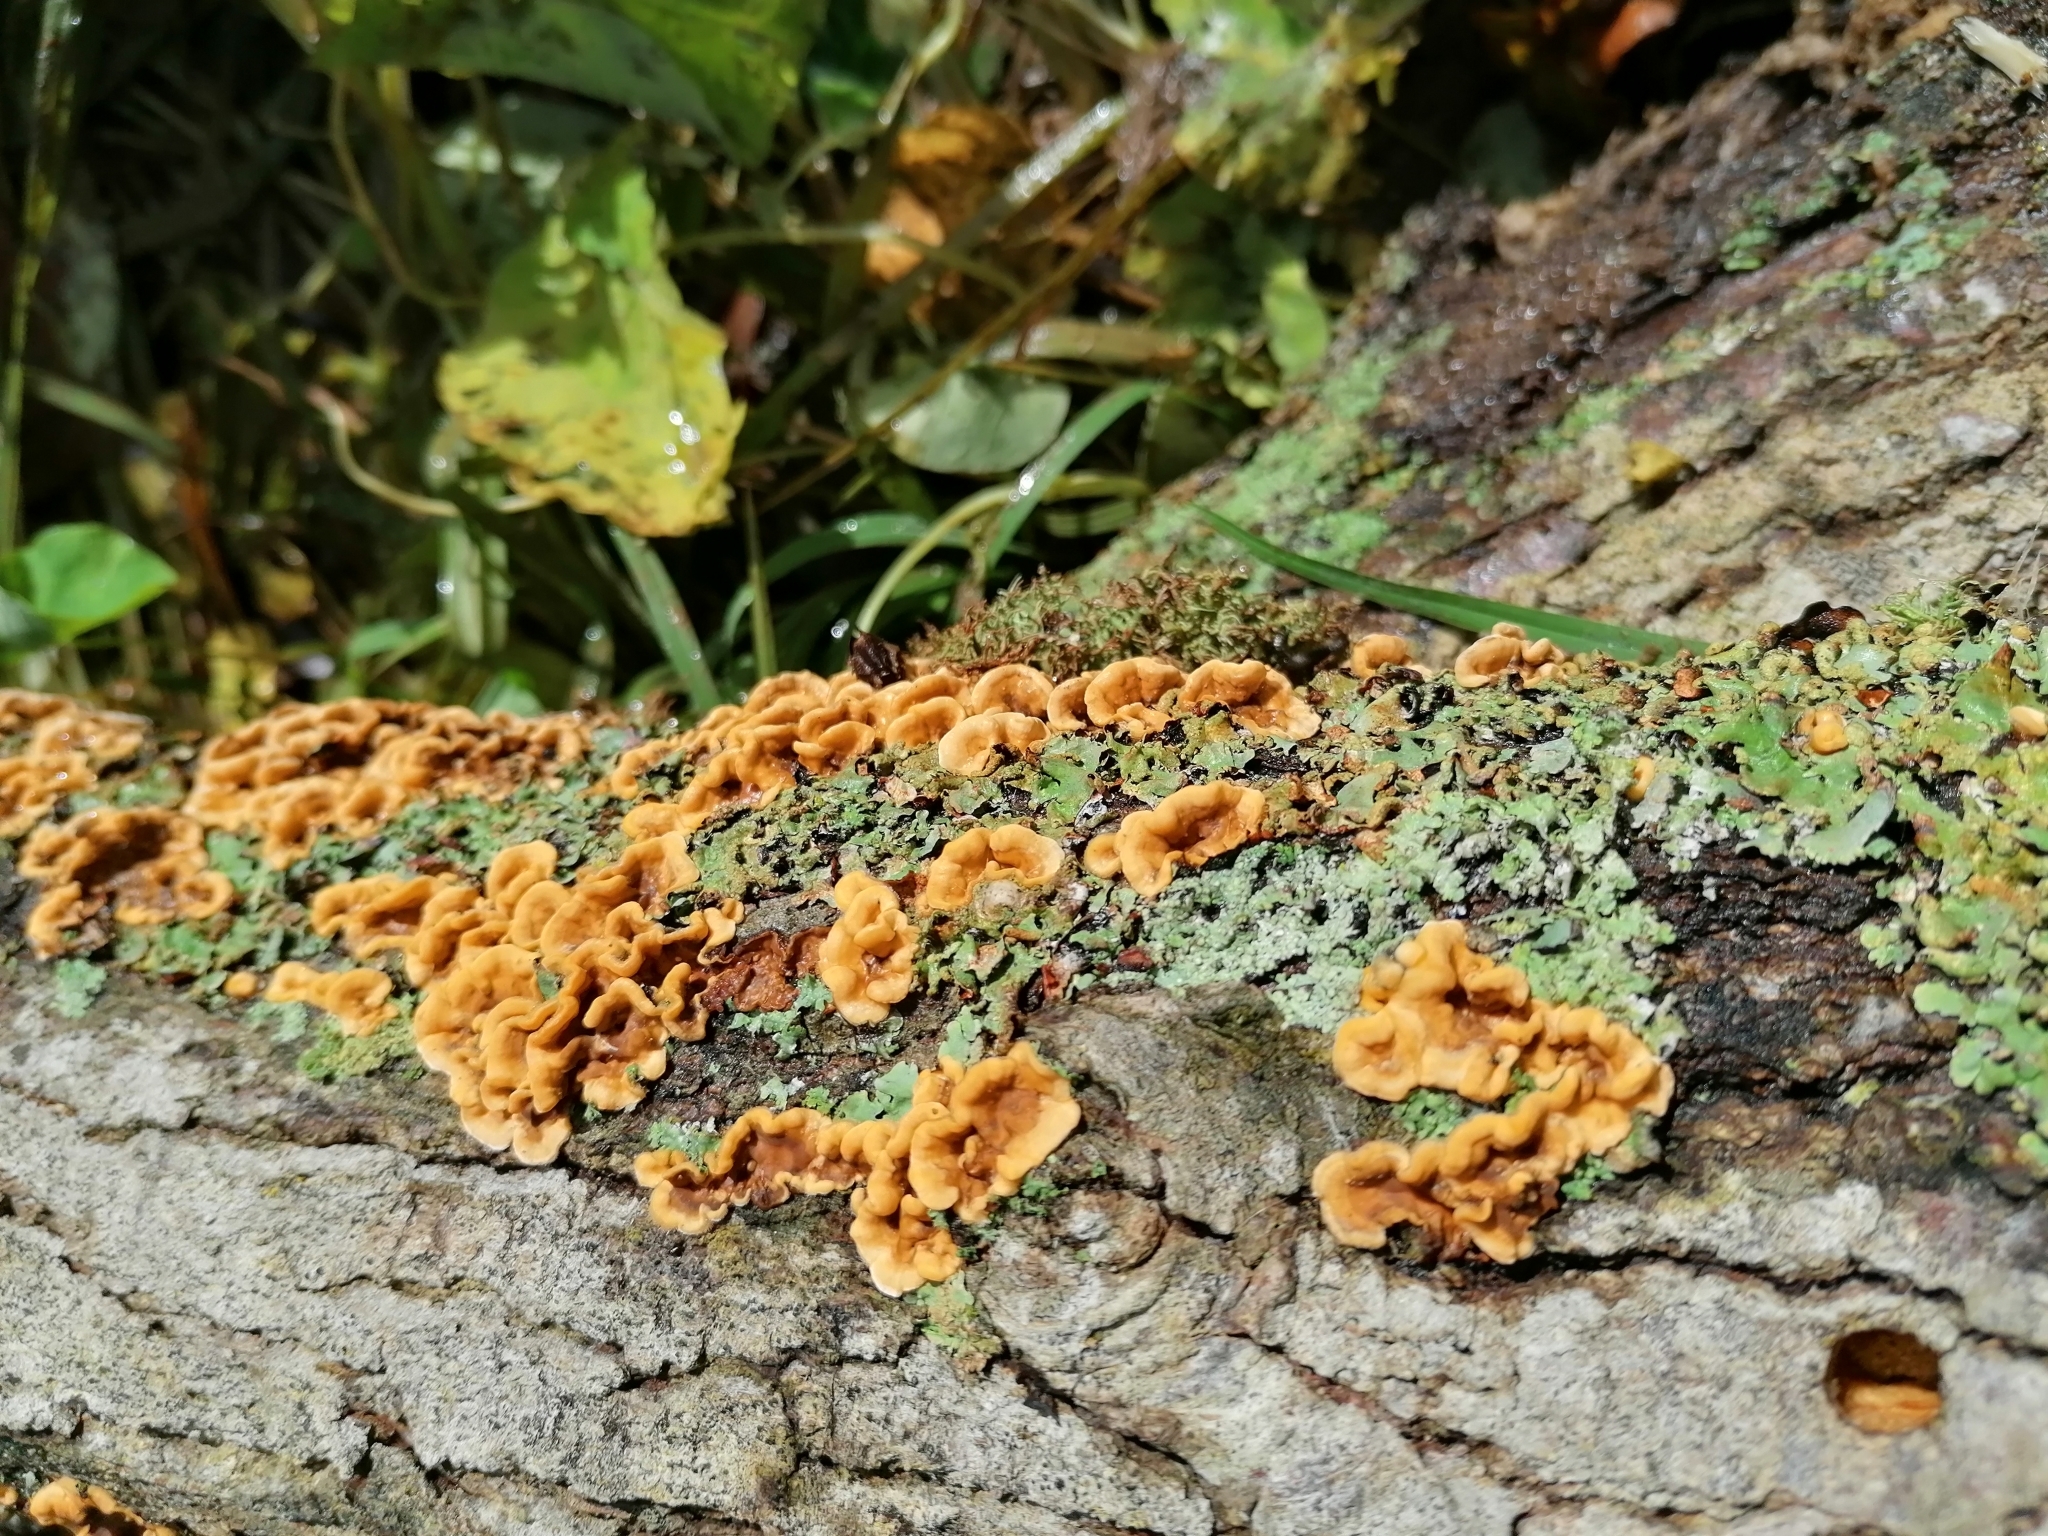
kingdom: Fungi
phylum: Basidiomycota
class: Agaricomycetes
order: Russulales
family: Stereaceae
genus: Stereum
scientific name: Stereum hirsutum
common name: Hairy curtain crust
